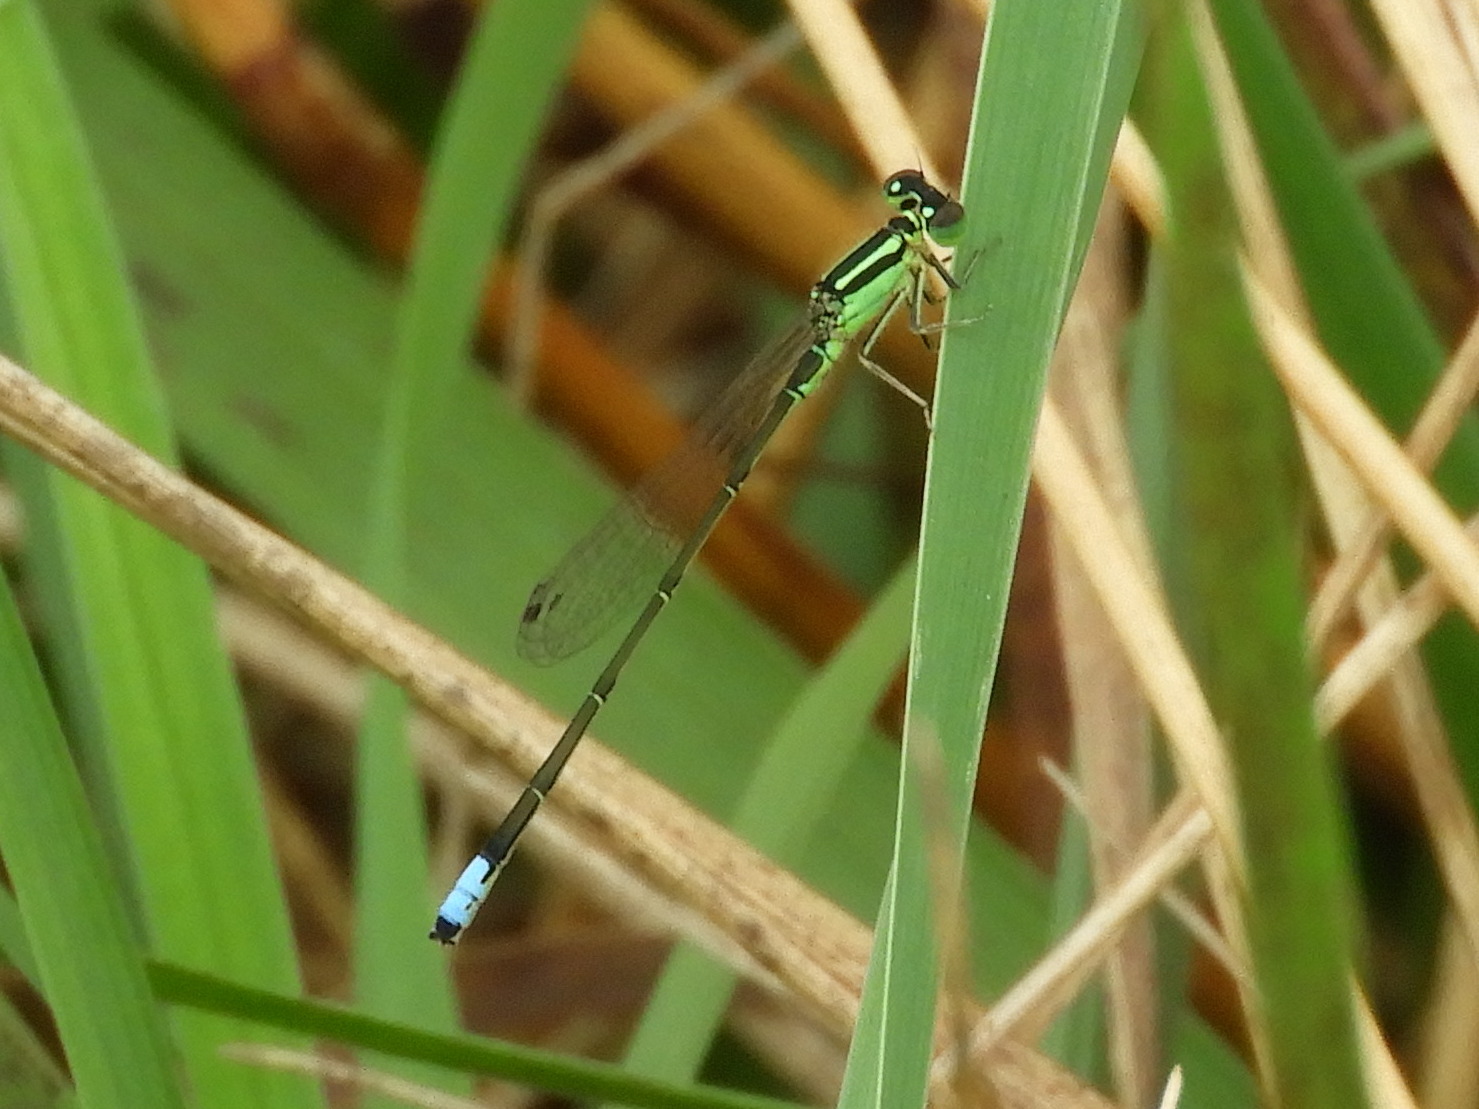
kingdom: Animalia
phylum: Arthropoda
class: Insecta
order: Odonata
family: Coenagrionidae
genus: Ischnura
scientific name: Ischnura verticalis
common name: Eastern forktail
